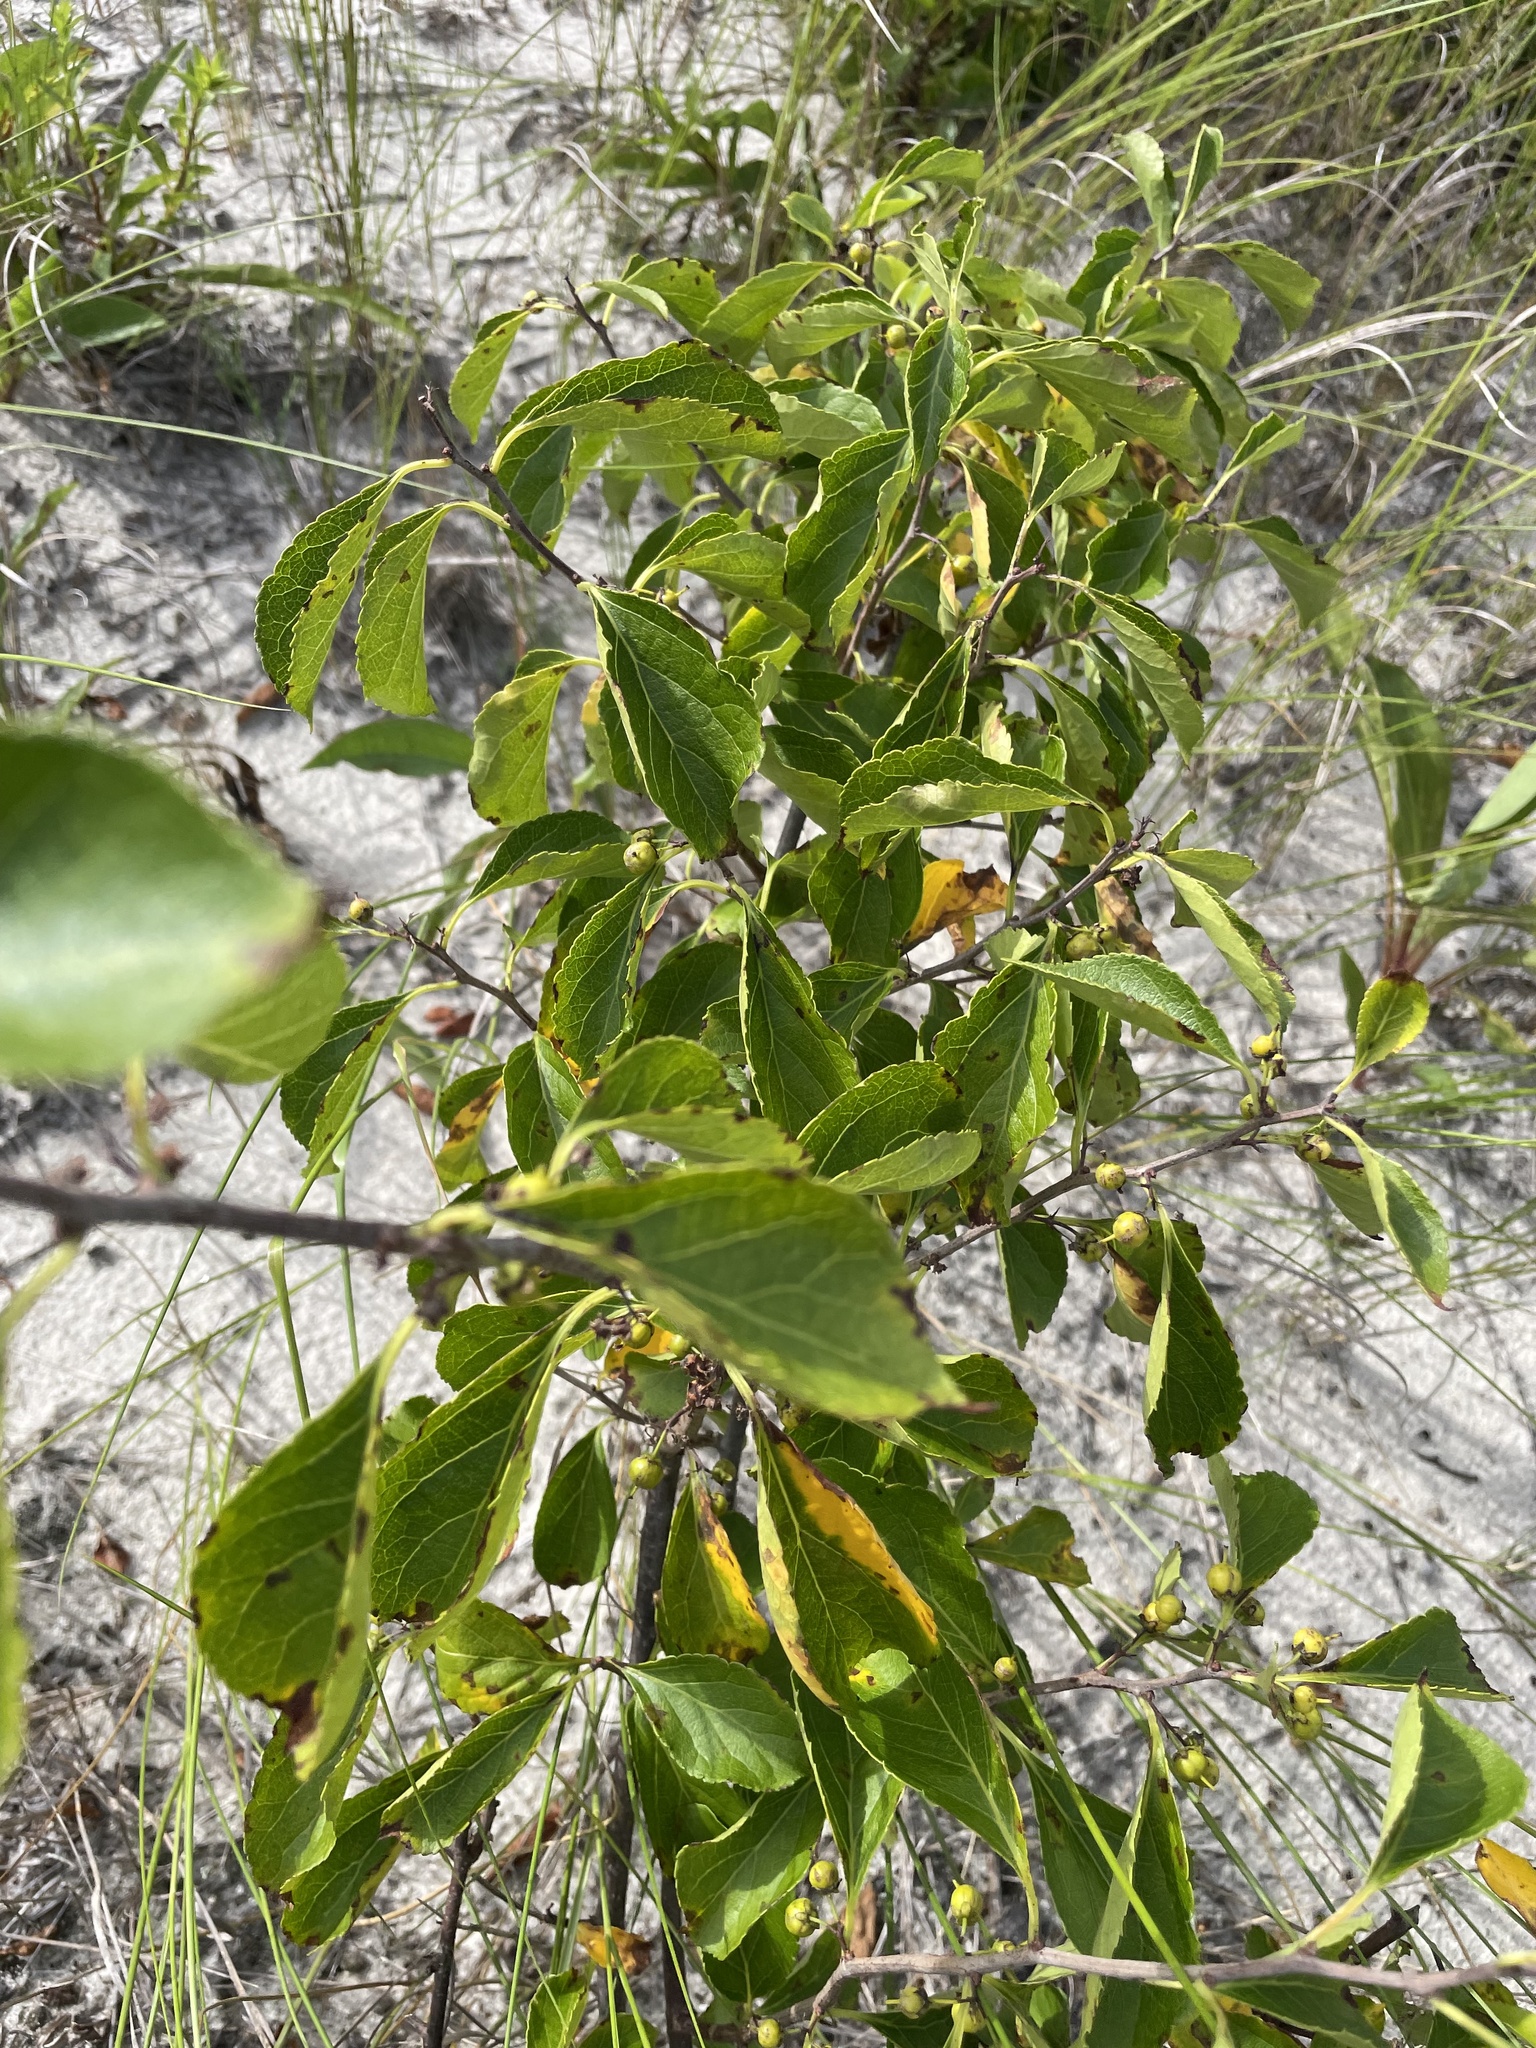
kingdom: Plantae
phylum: Tracheophyta
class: Magnoliopsida
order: Celastrales
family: Celastraceae
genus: Celastrus
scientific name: Celastrus orbiculatus
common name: Oriental bittersweet
